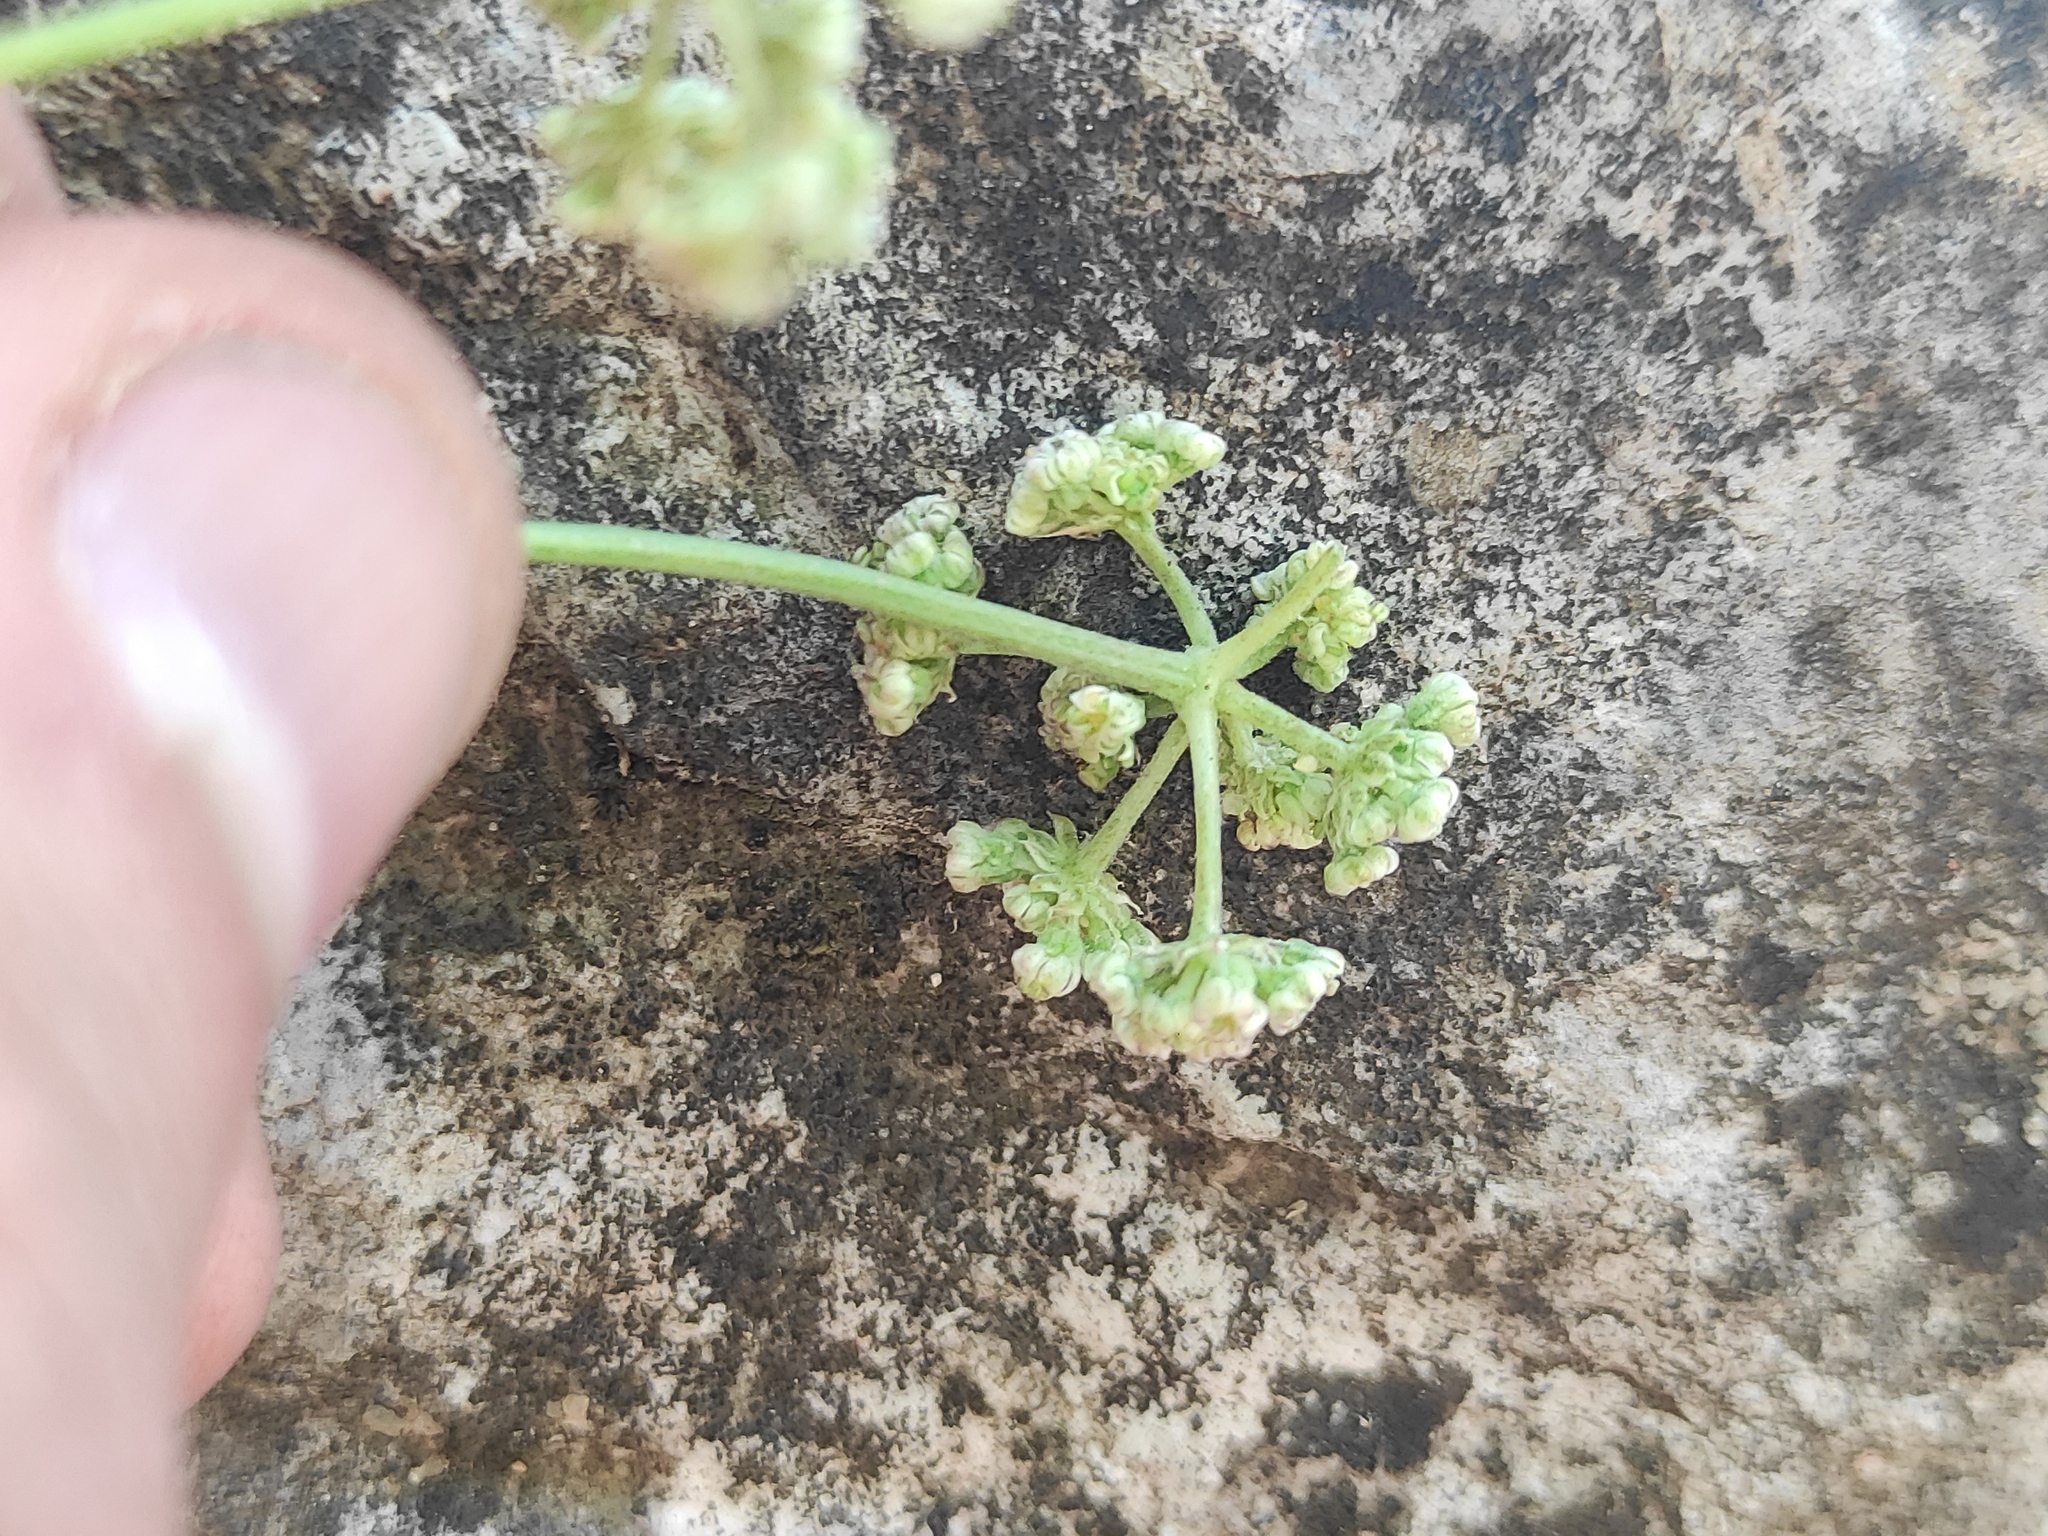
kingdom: Plantae
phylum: Tracheophyta
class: Magnoliopsida
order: Apiales
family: Apiaceae
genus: Seseli
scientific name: Seseli longifolium
